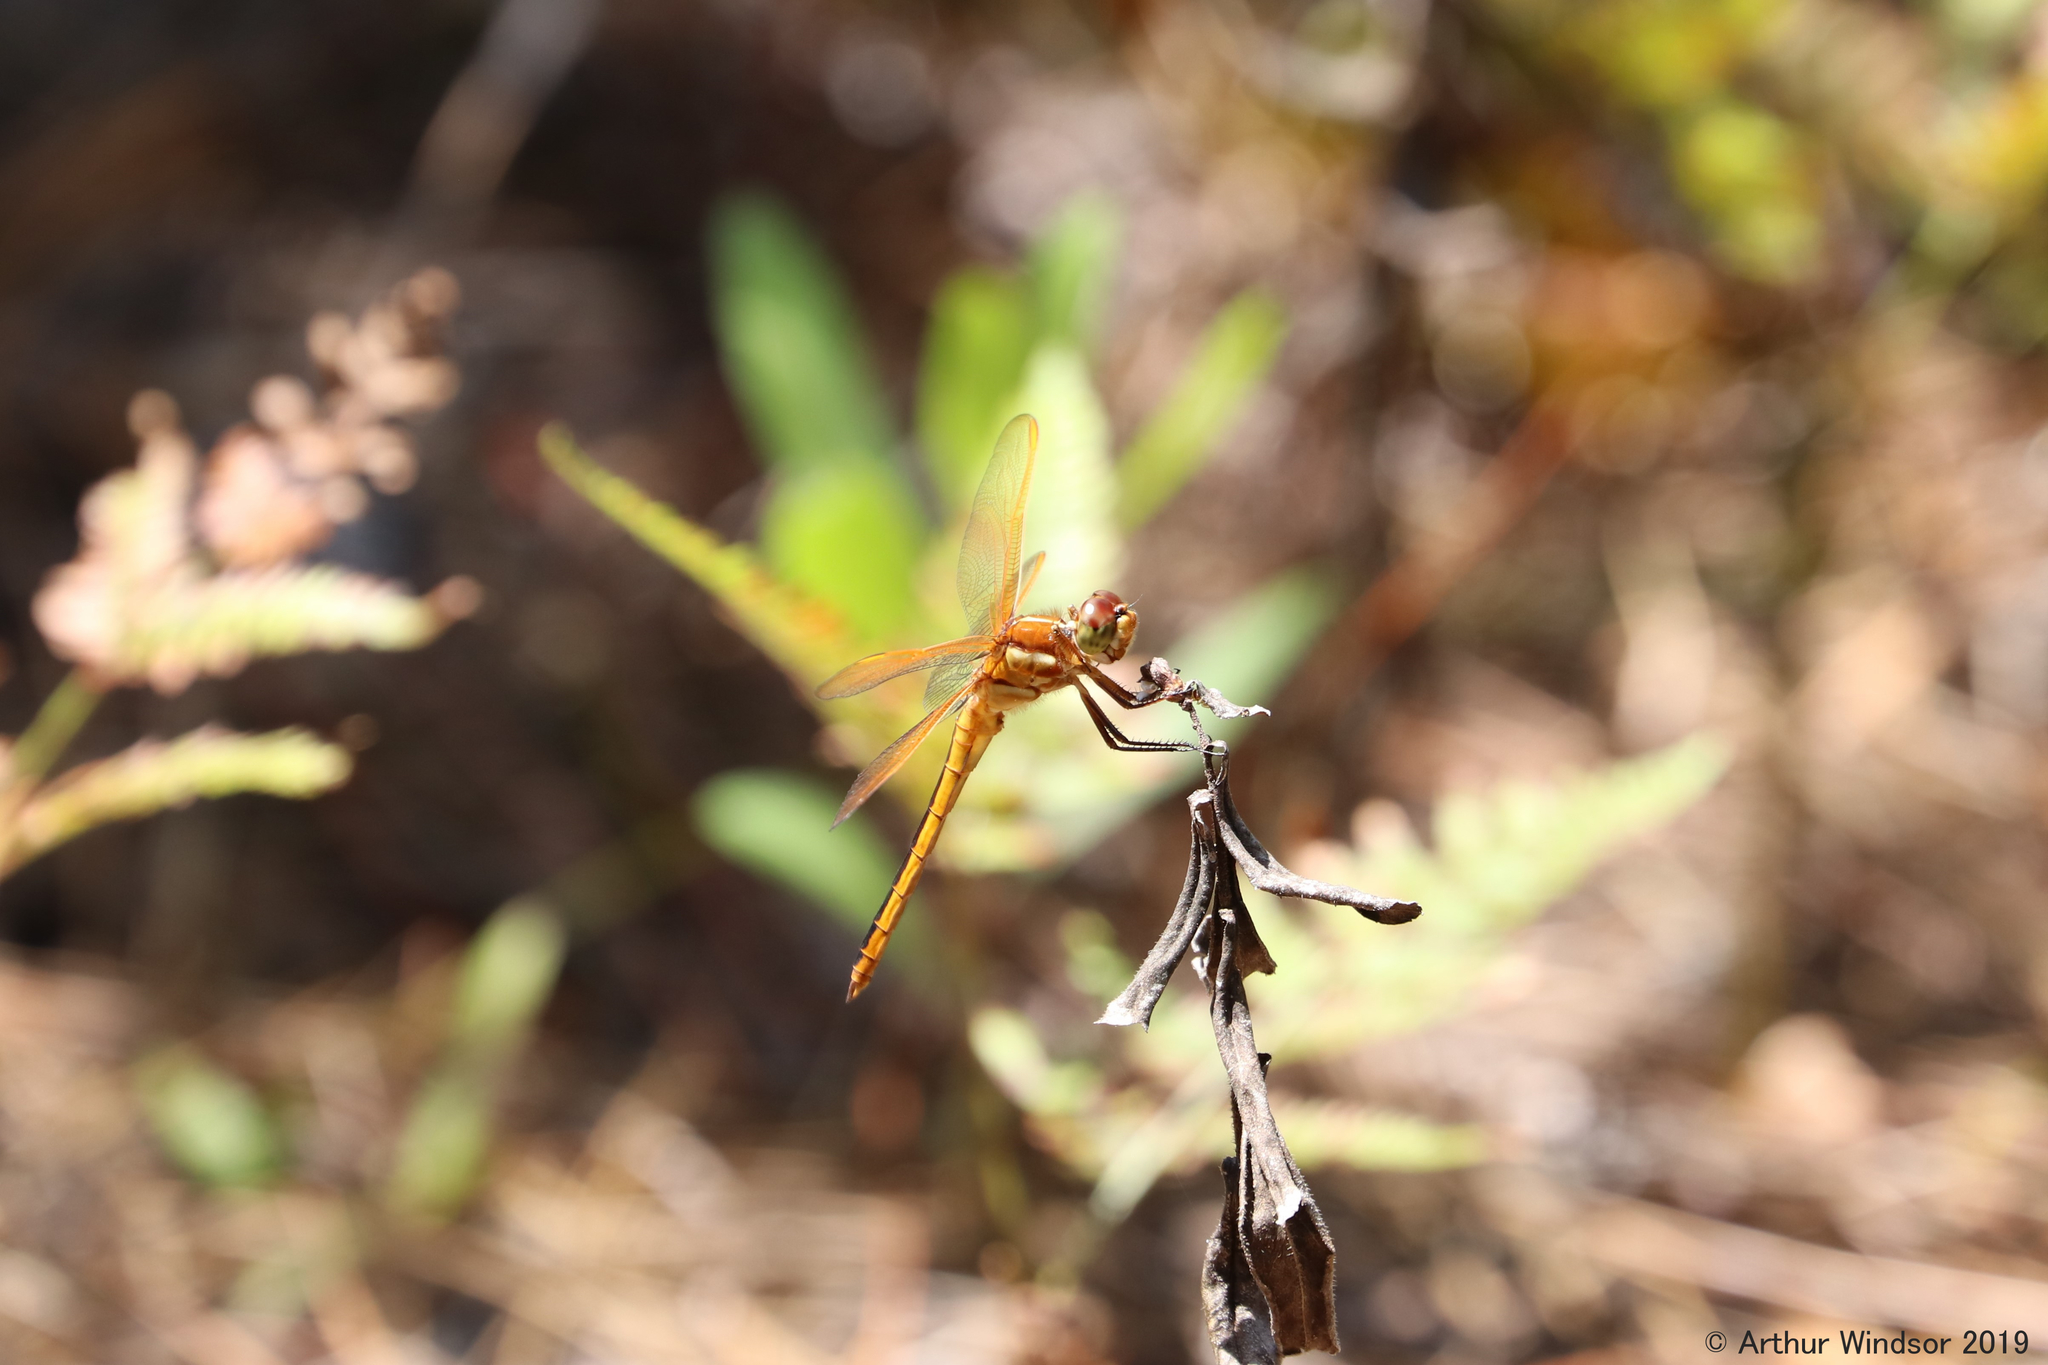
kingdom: Animalia
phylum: Arthropoda
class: Insecta
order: Odonata
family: Libellulidae
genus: Libellula
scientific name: Libellula auripennis
